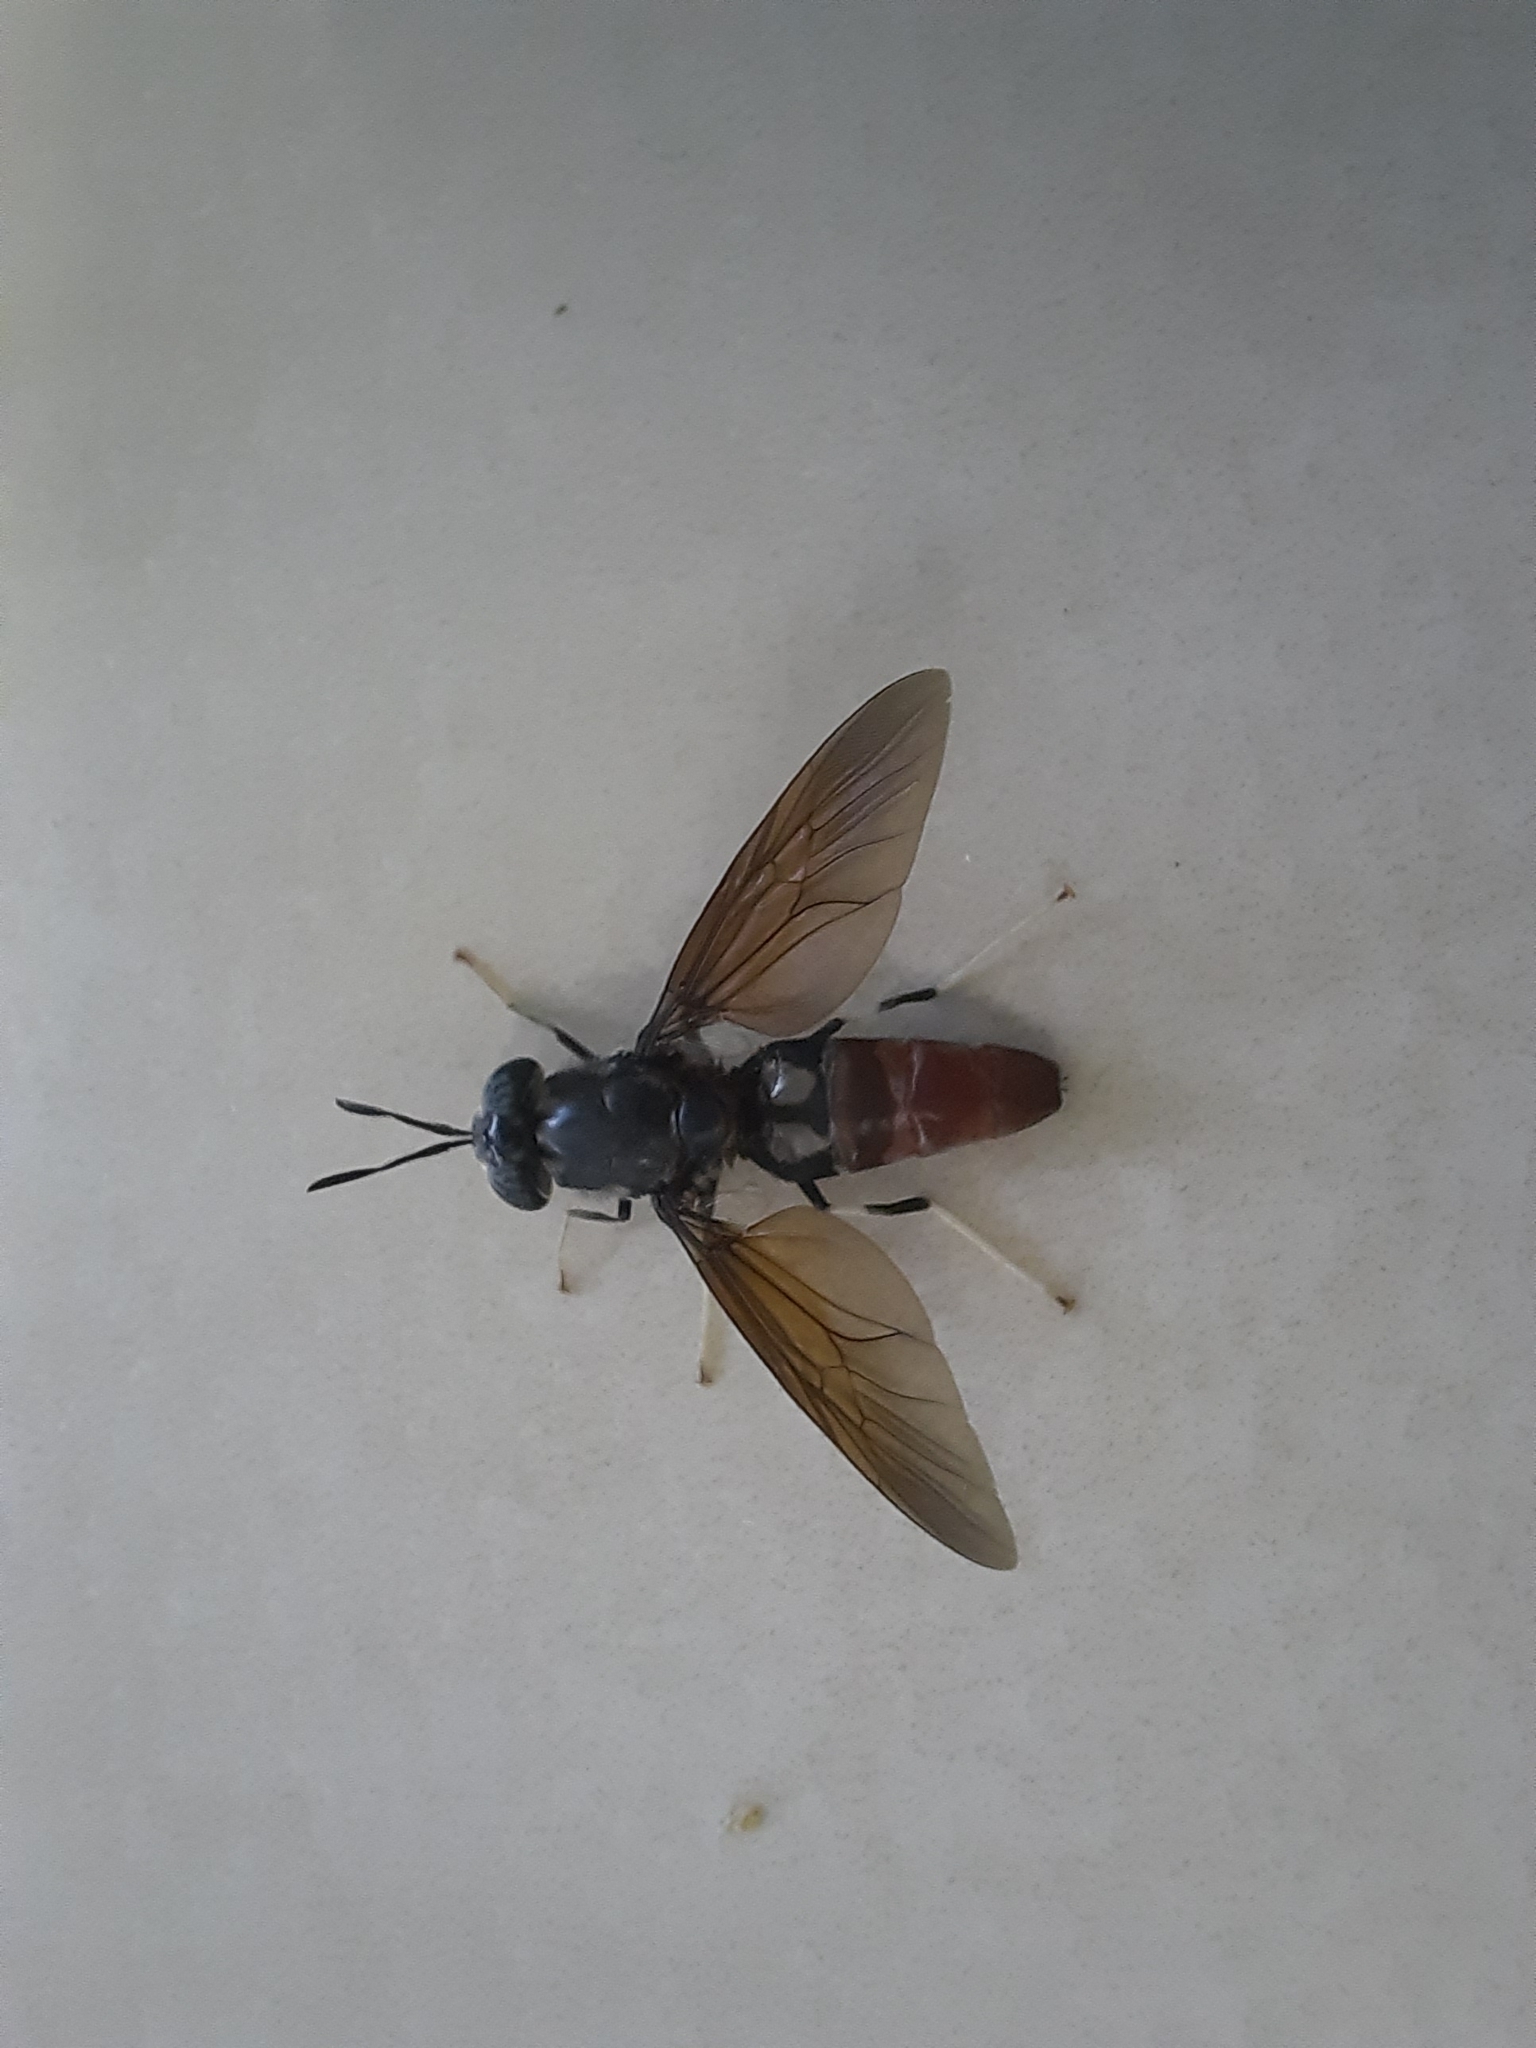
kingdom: Animalia
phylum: Arthropoda
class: Insecta
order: Diptera
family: Stratiomyidae
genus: Hermetia
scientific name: Hermetia illucens
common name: Black soldier fly
